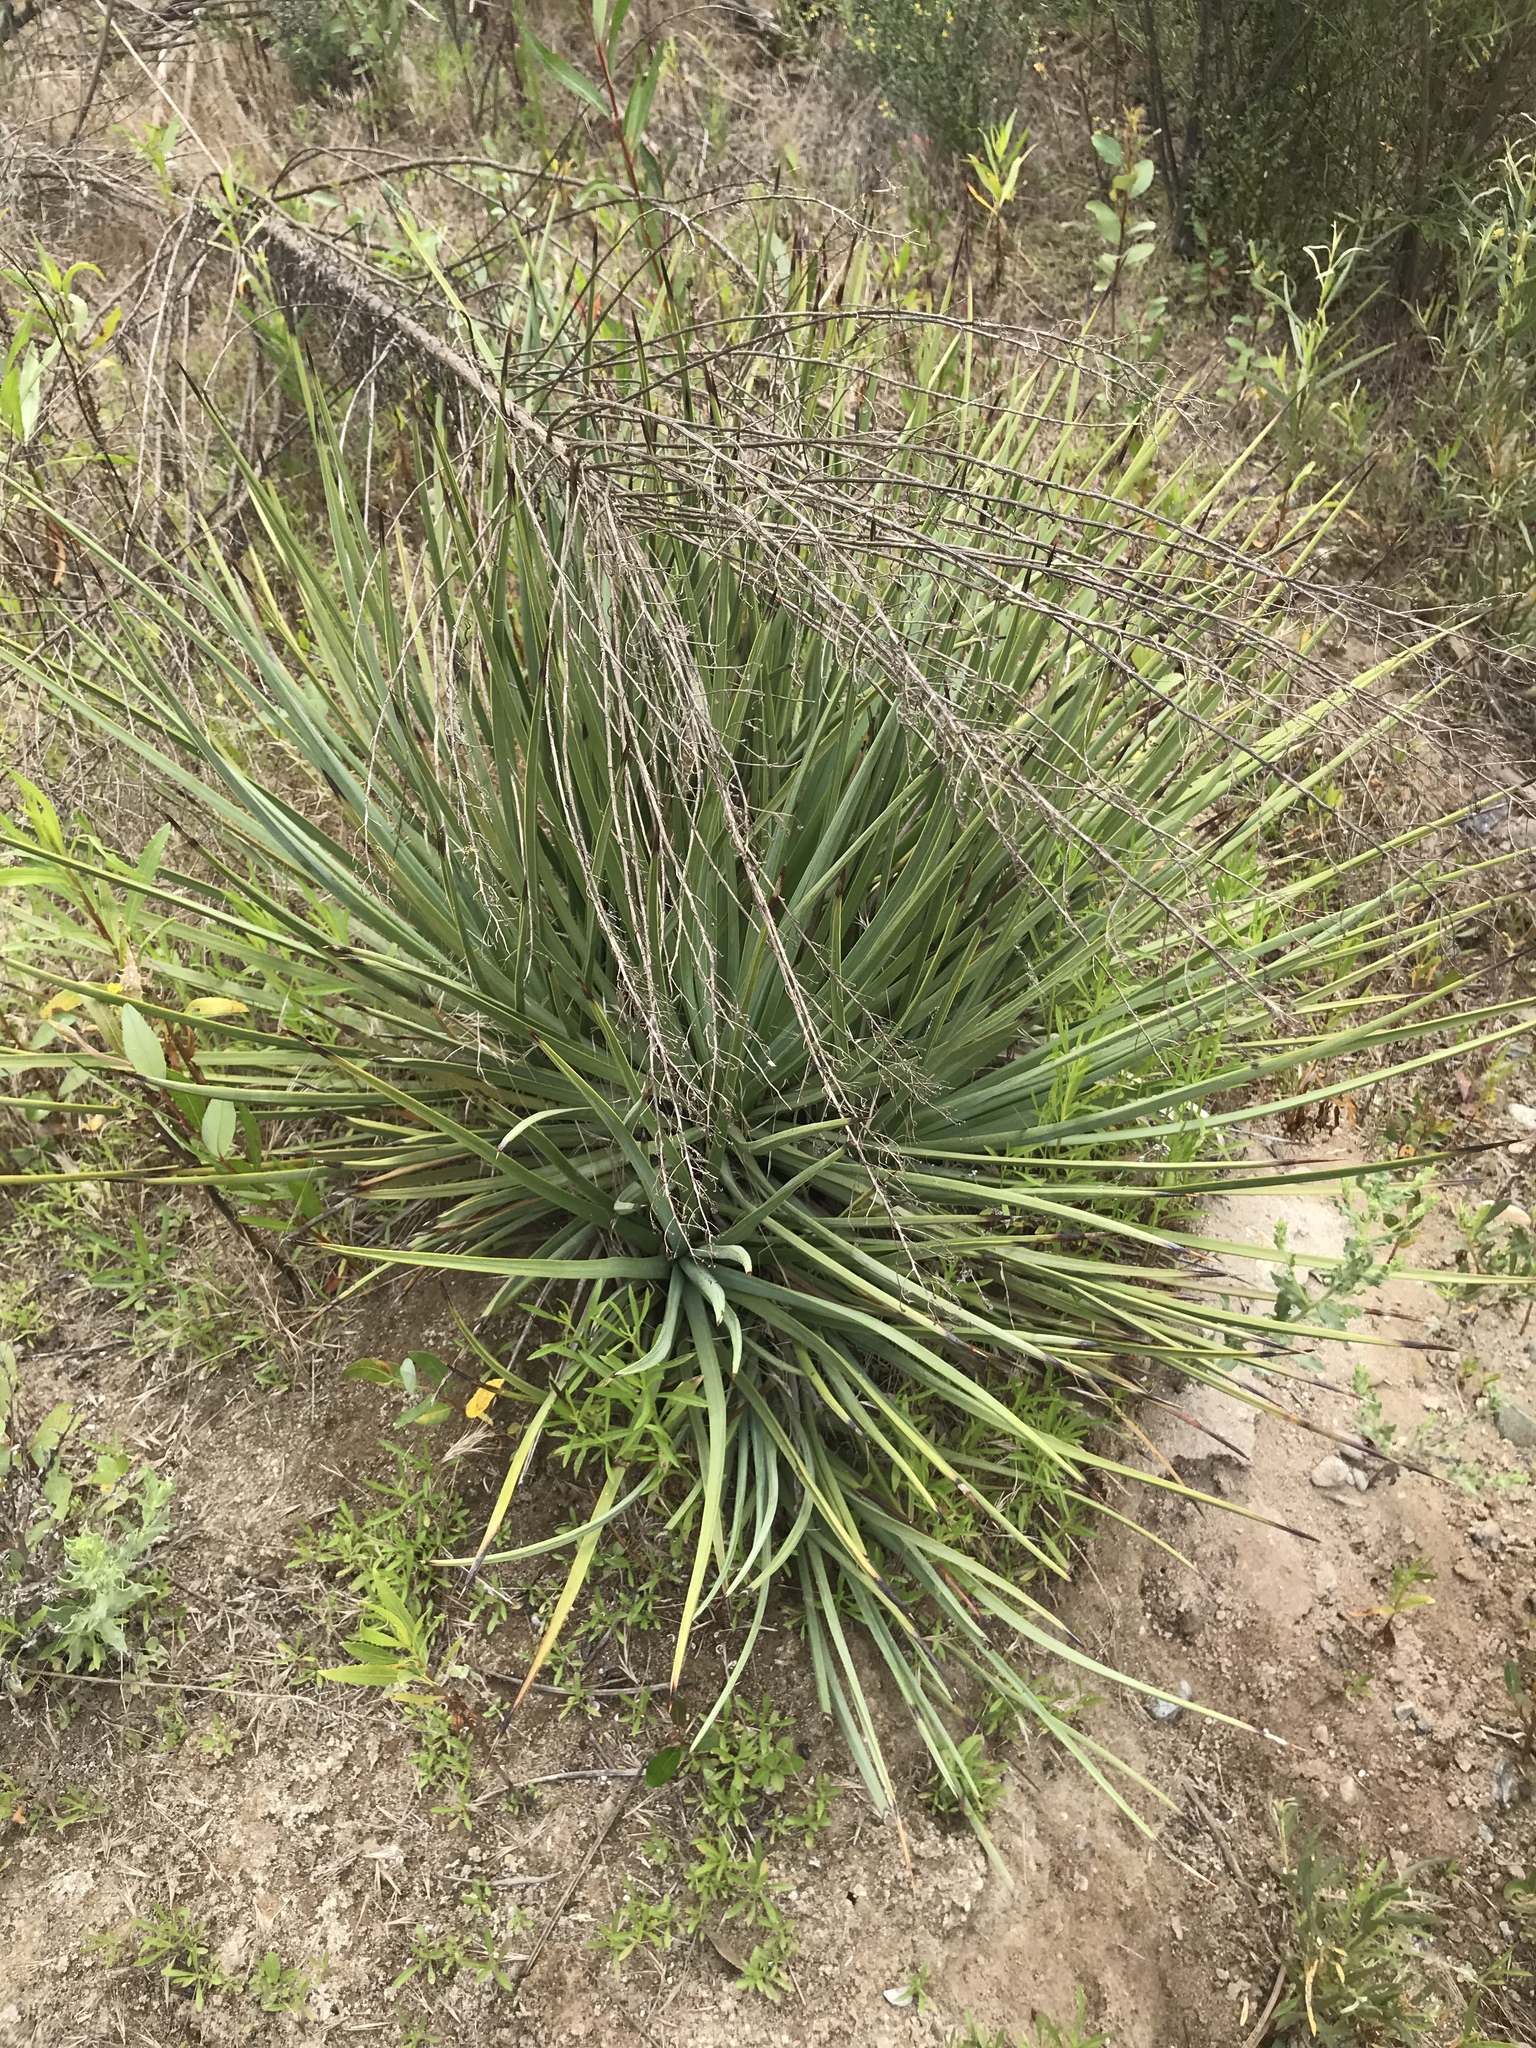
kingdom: Plantae
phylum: Tracheophyta
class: Liliopsida
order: Asparagales
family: Asparagaceae
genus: Hesperoyucca
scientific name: Hesperoyucca whipplei
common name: Our lord's-candle
